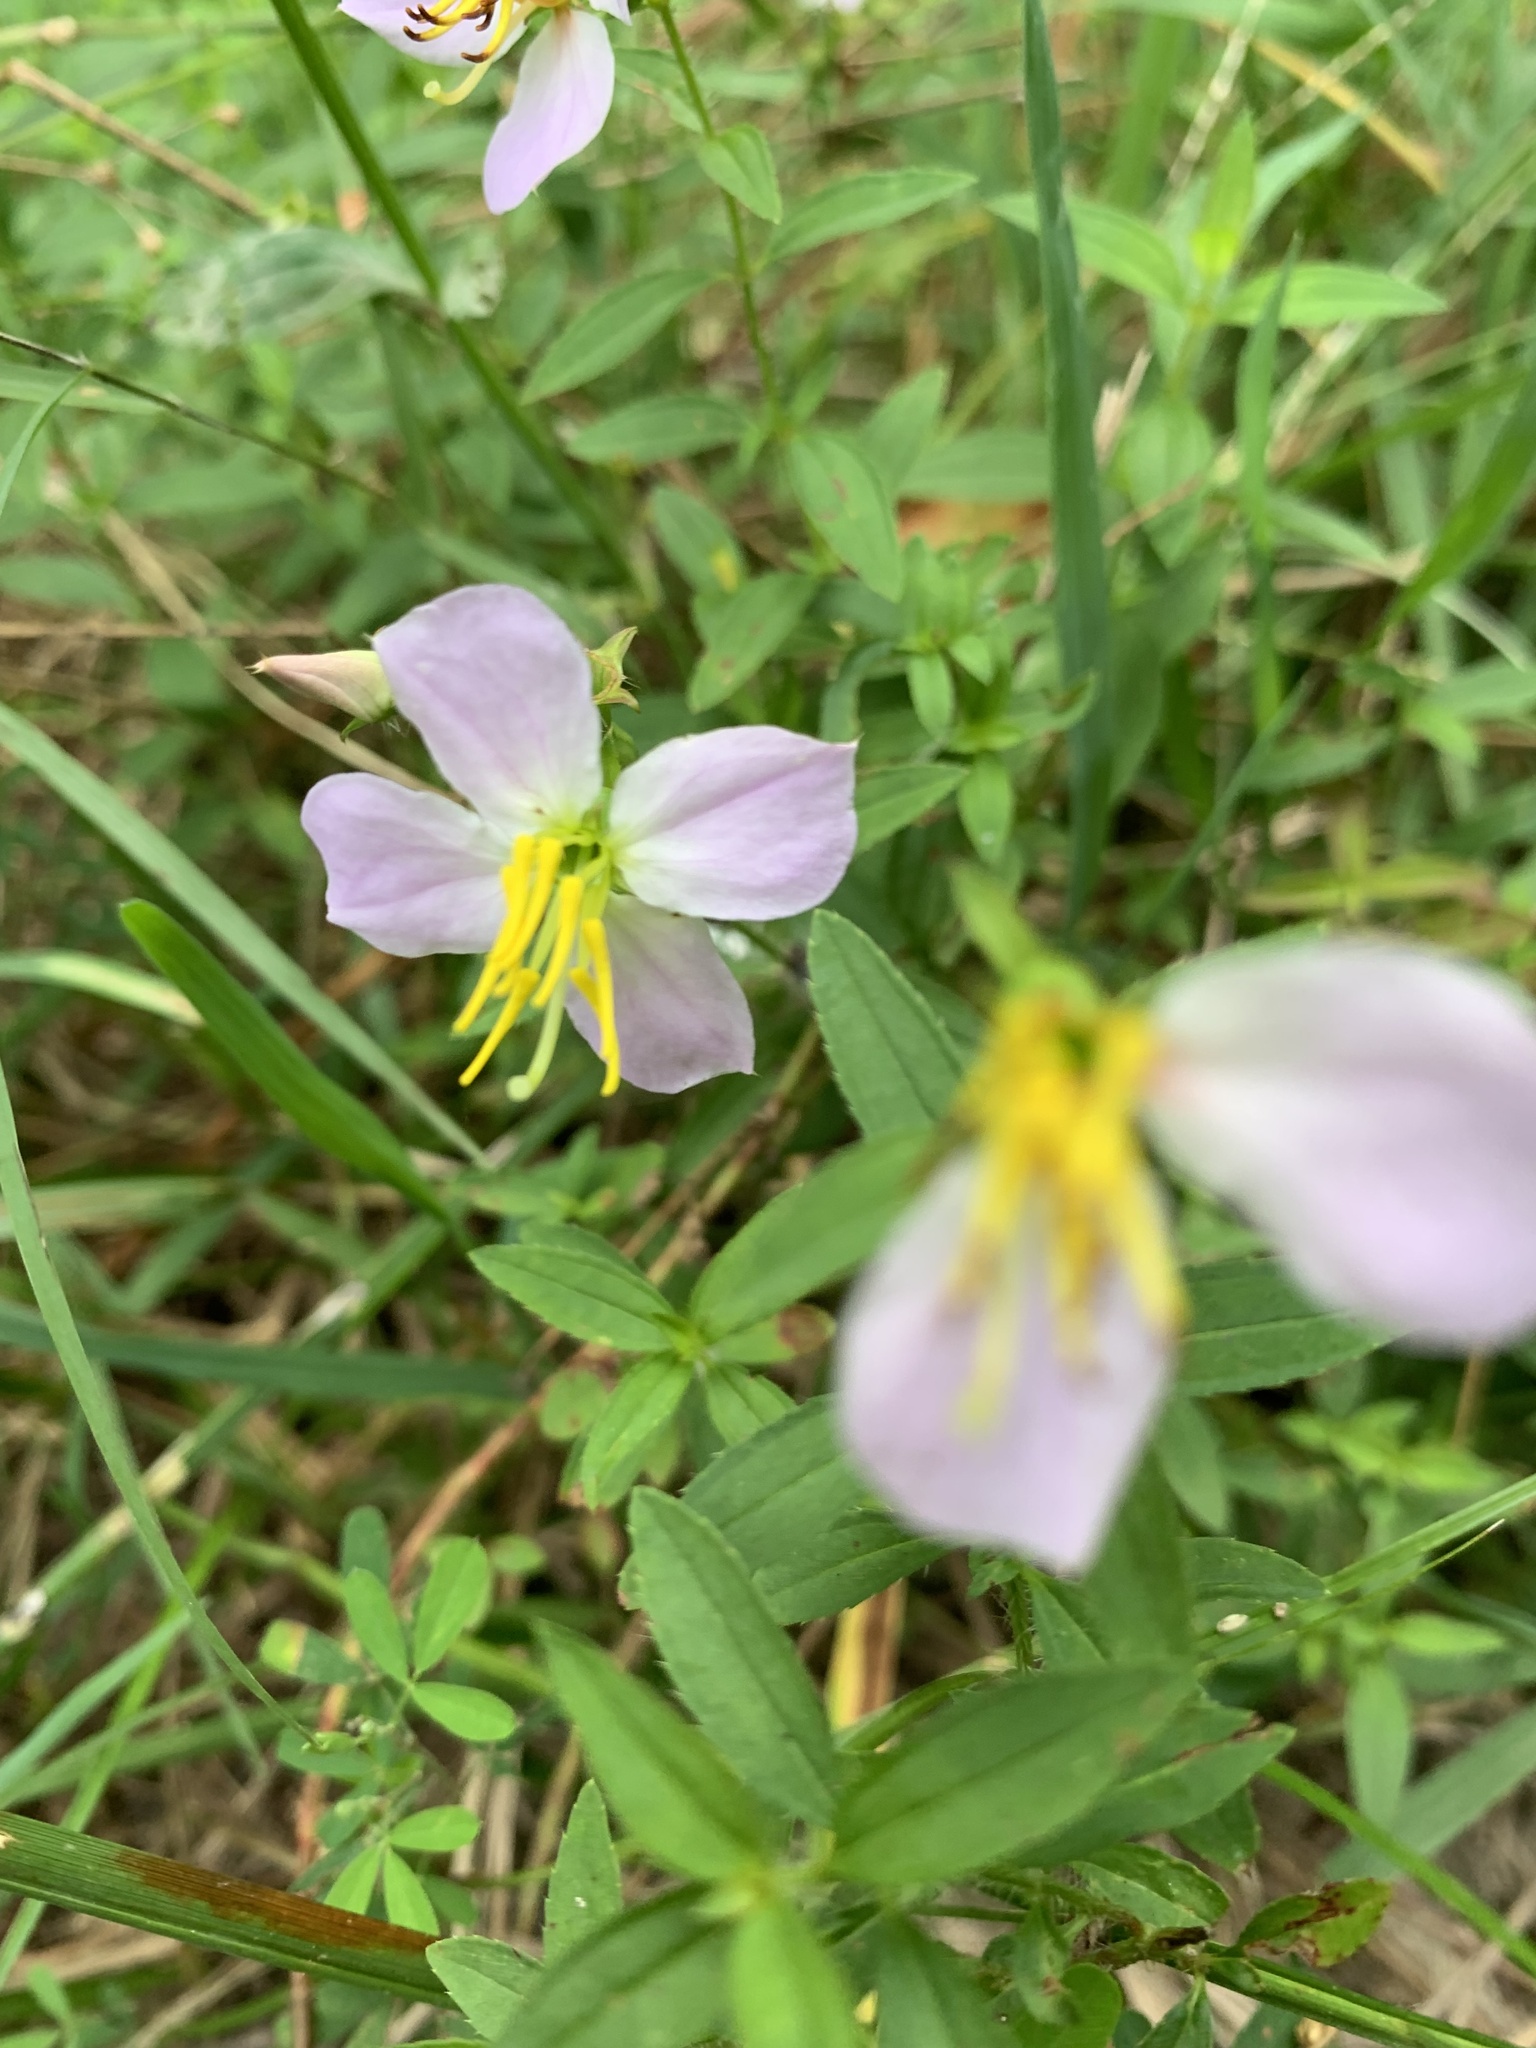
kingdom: Plantae
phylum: Tracheophyta
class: Magnoliopsida
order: Myrtales
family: Melastomataceae
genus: Rhexia
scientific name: Rhexia mariana
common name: Dull meadow-pitcher
